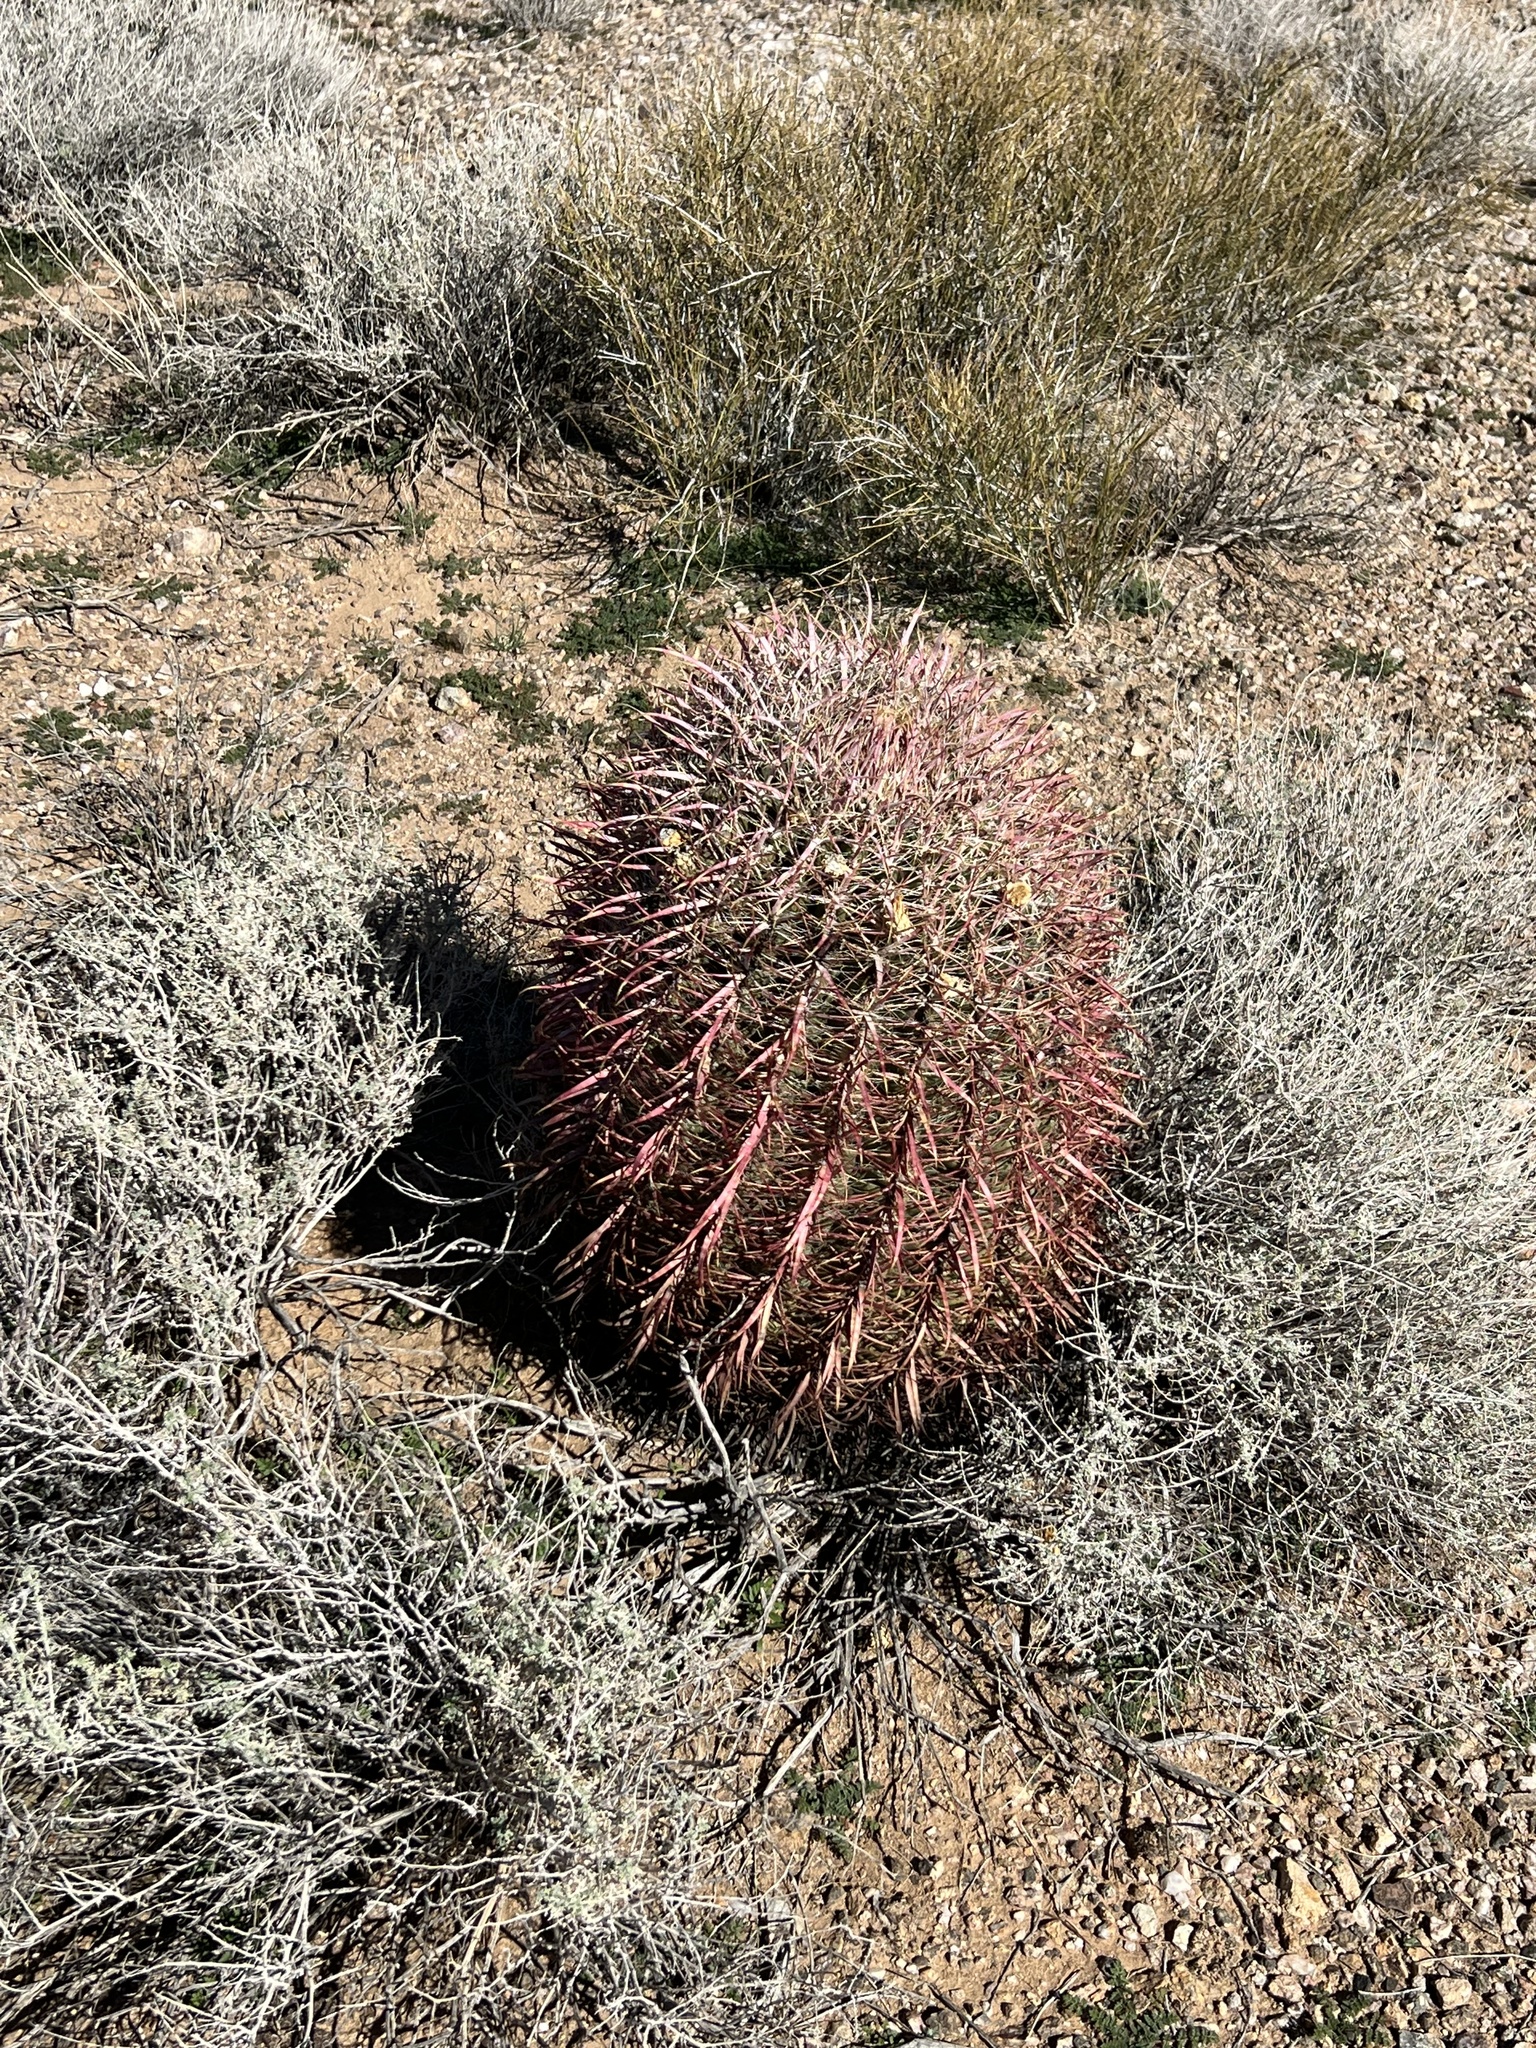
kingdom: Plantae
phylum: Tracheophyta
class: Magnoliopsida
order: Caryophyllales
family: Cactaceae
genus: Ferocactus
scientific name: Ferocactus cylindraceus
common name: California barrel cactus
